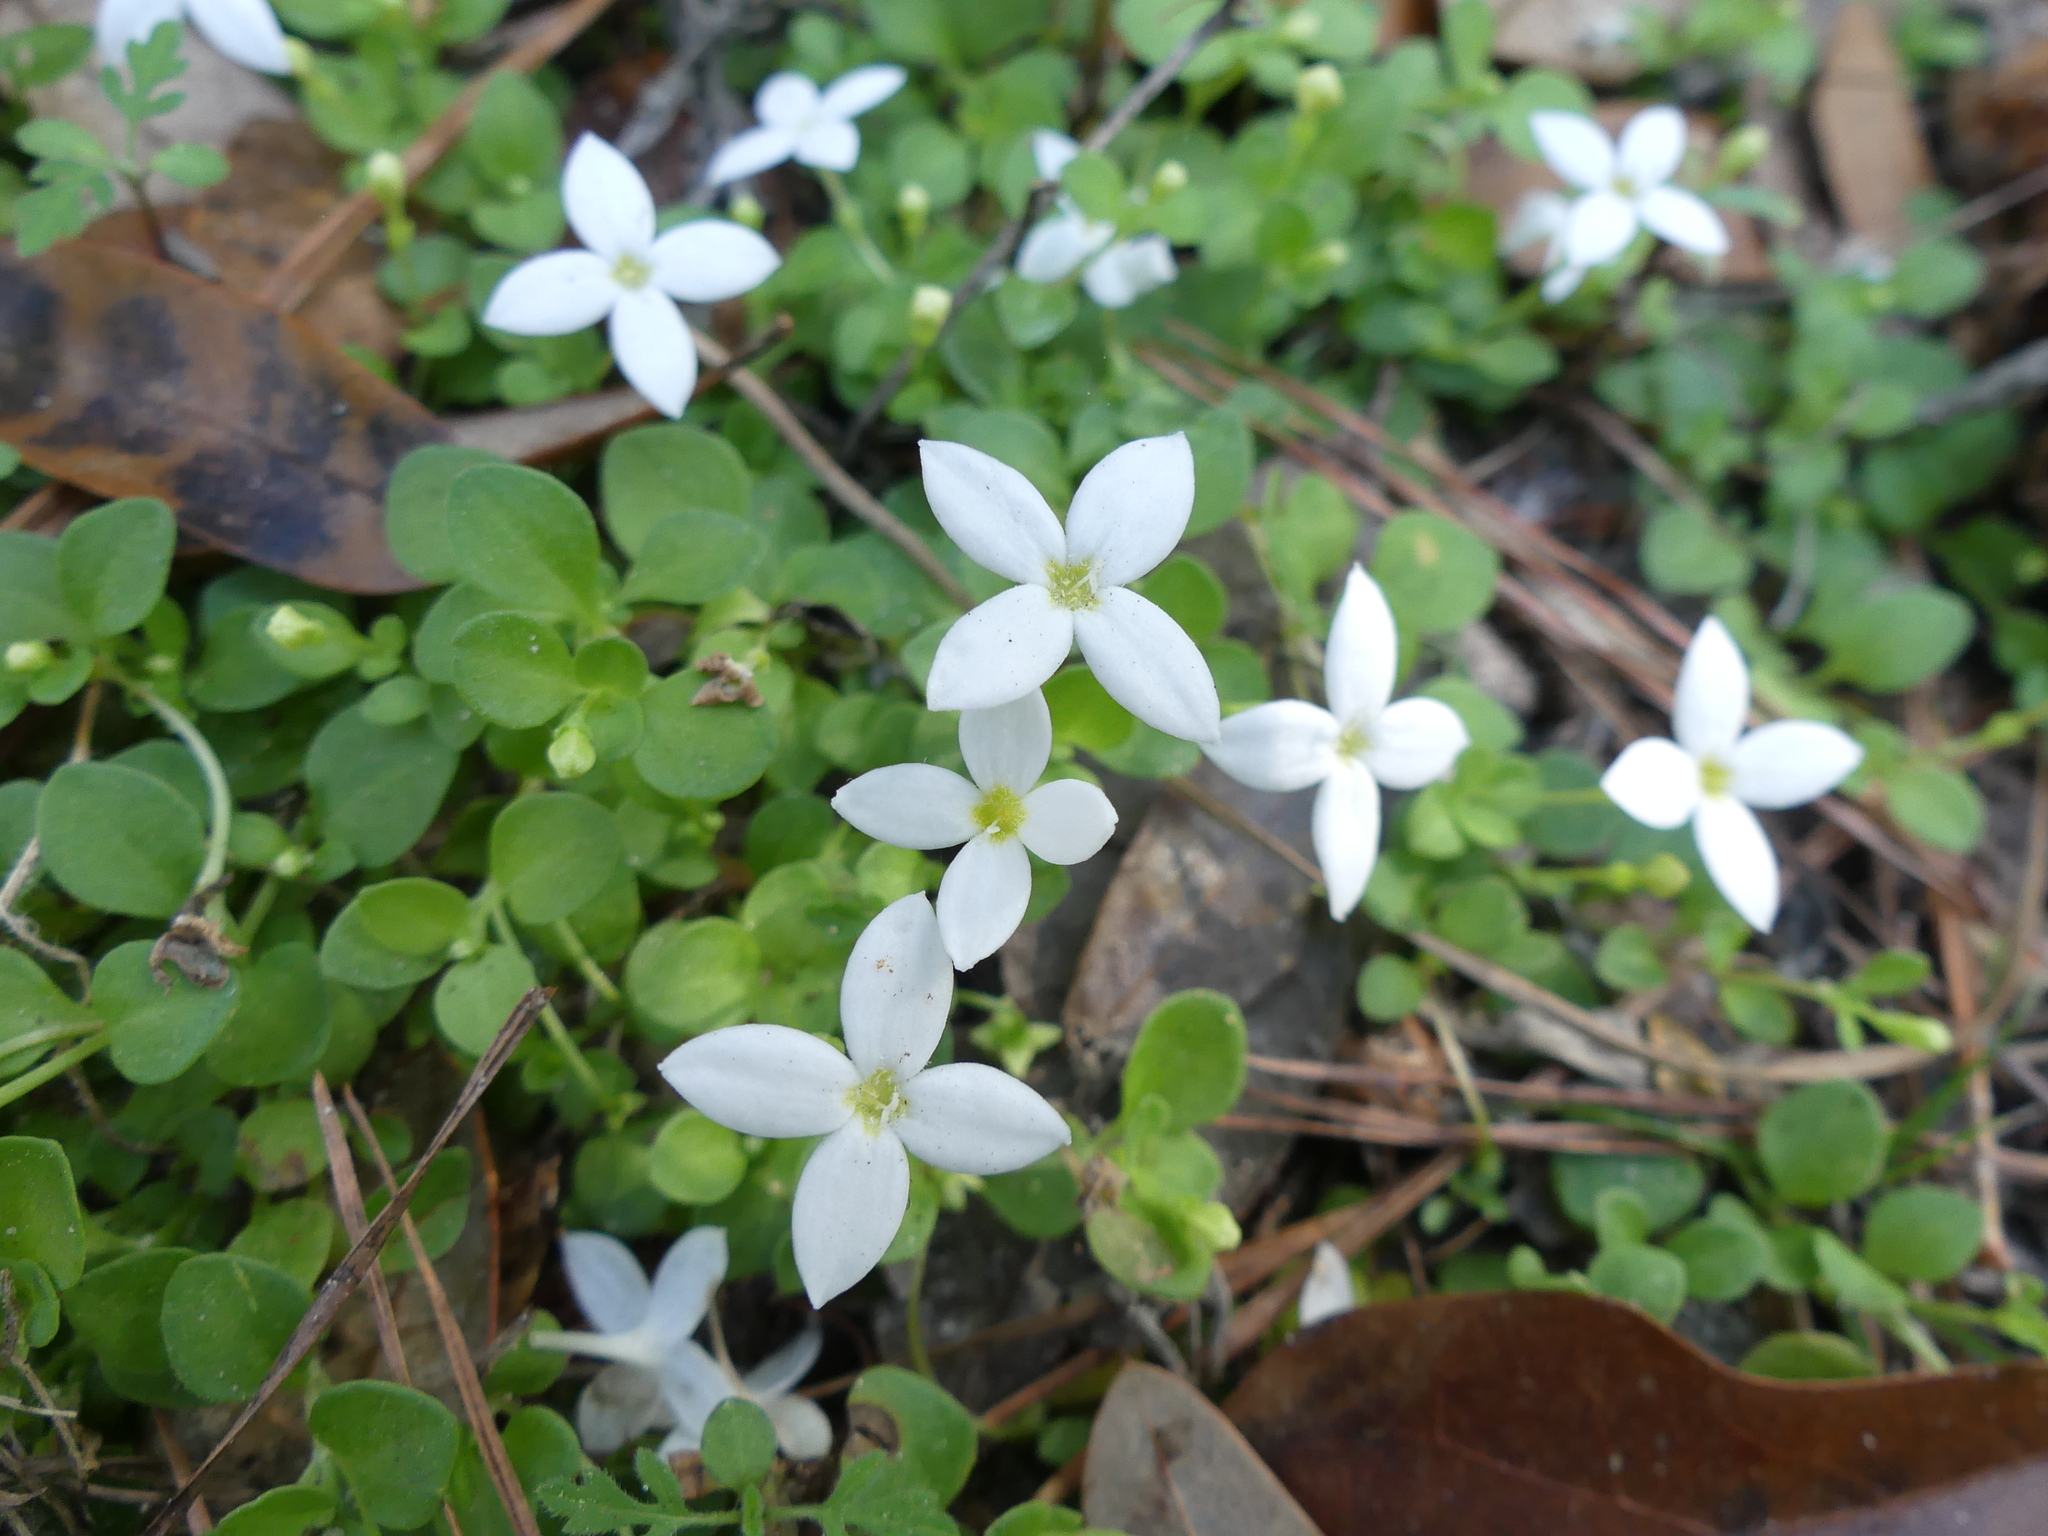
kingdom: Plantae
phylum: Tracheophyta
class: Magnoliopsida
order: Gentianales
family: Rubiaceae
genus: Houstonia
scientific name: Houstonia procumbens
